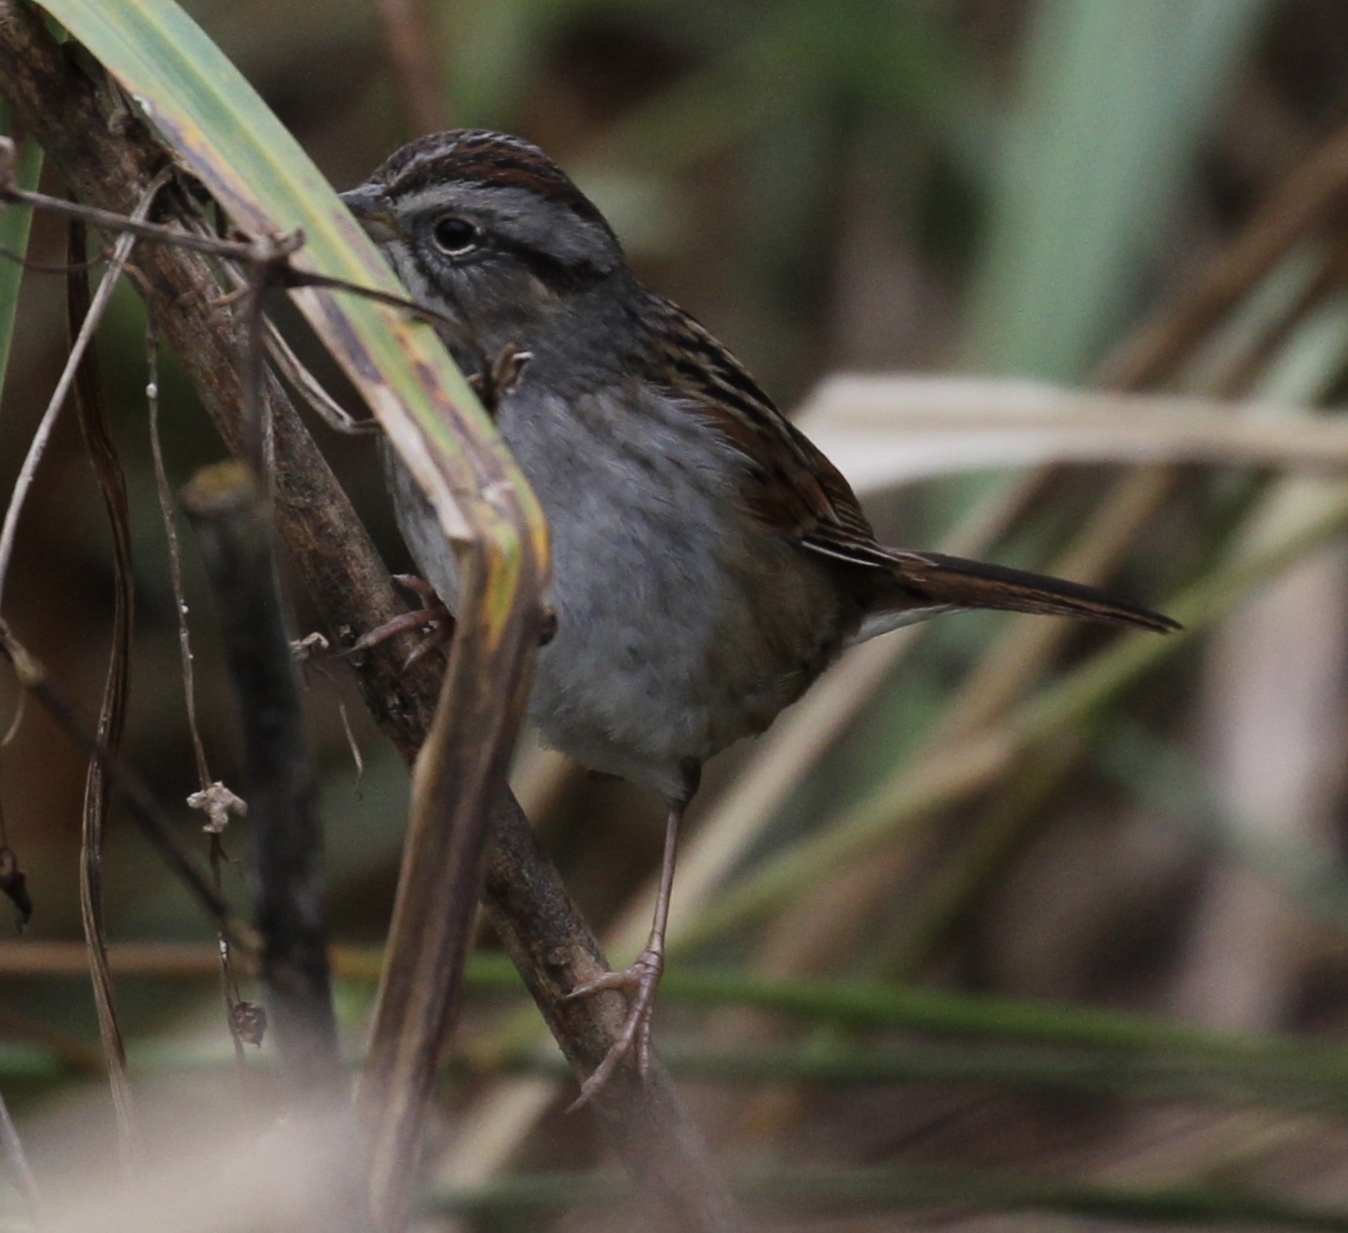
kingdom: Animalia
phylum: Chordata
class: Aves
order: Passeriformes
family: Passerellidae
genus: Melospiza
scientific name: Melospiza georgiana
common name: Swamp sparrow
